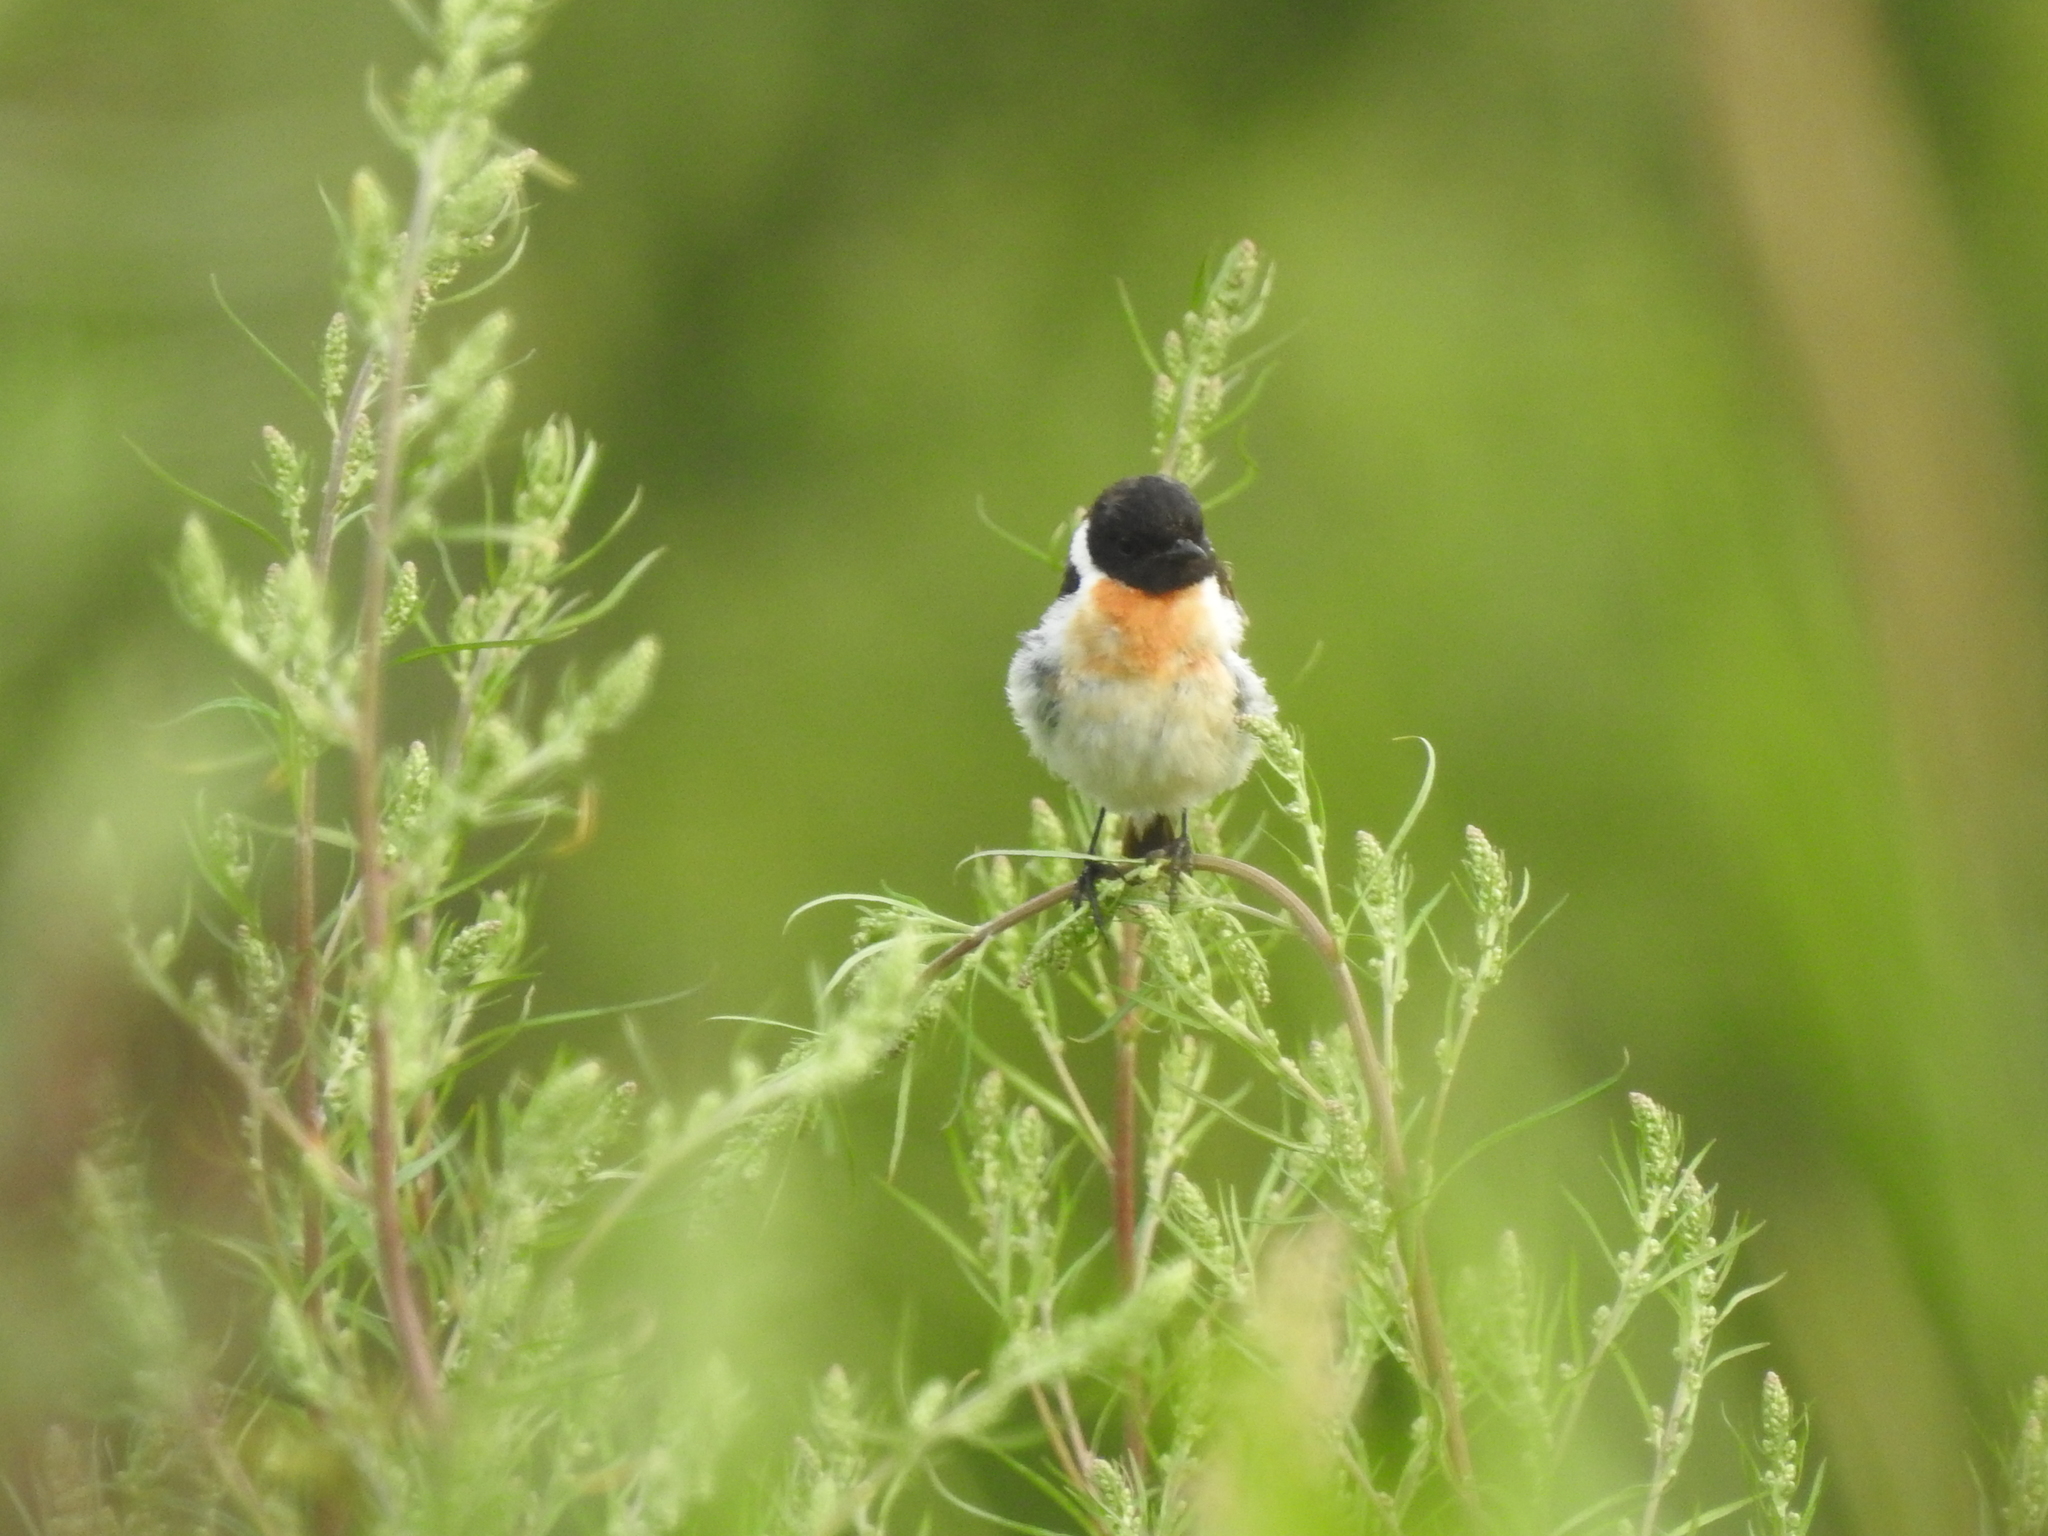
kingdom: Animalia
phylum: Chordata
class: Aves
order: Passeriformes
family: Muscicapidae
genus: Saxicola
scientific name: Saxicola maurus
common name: Siberian stonechat
